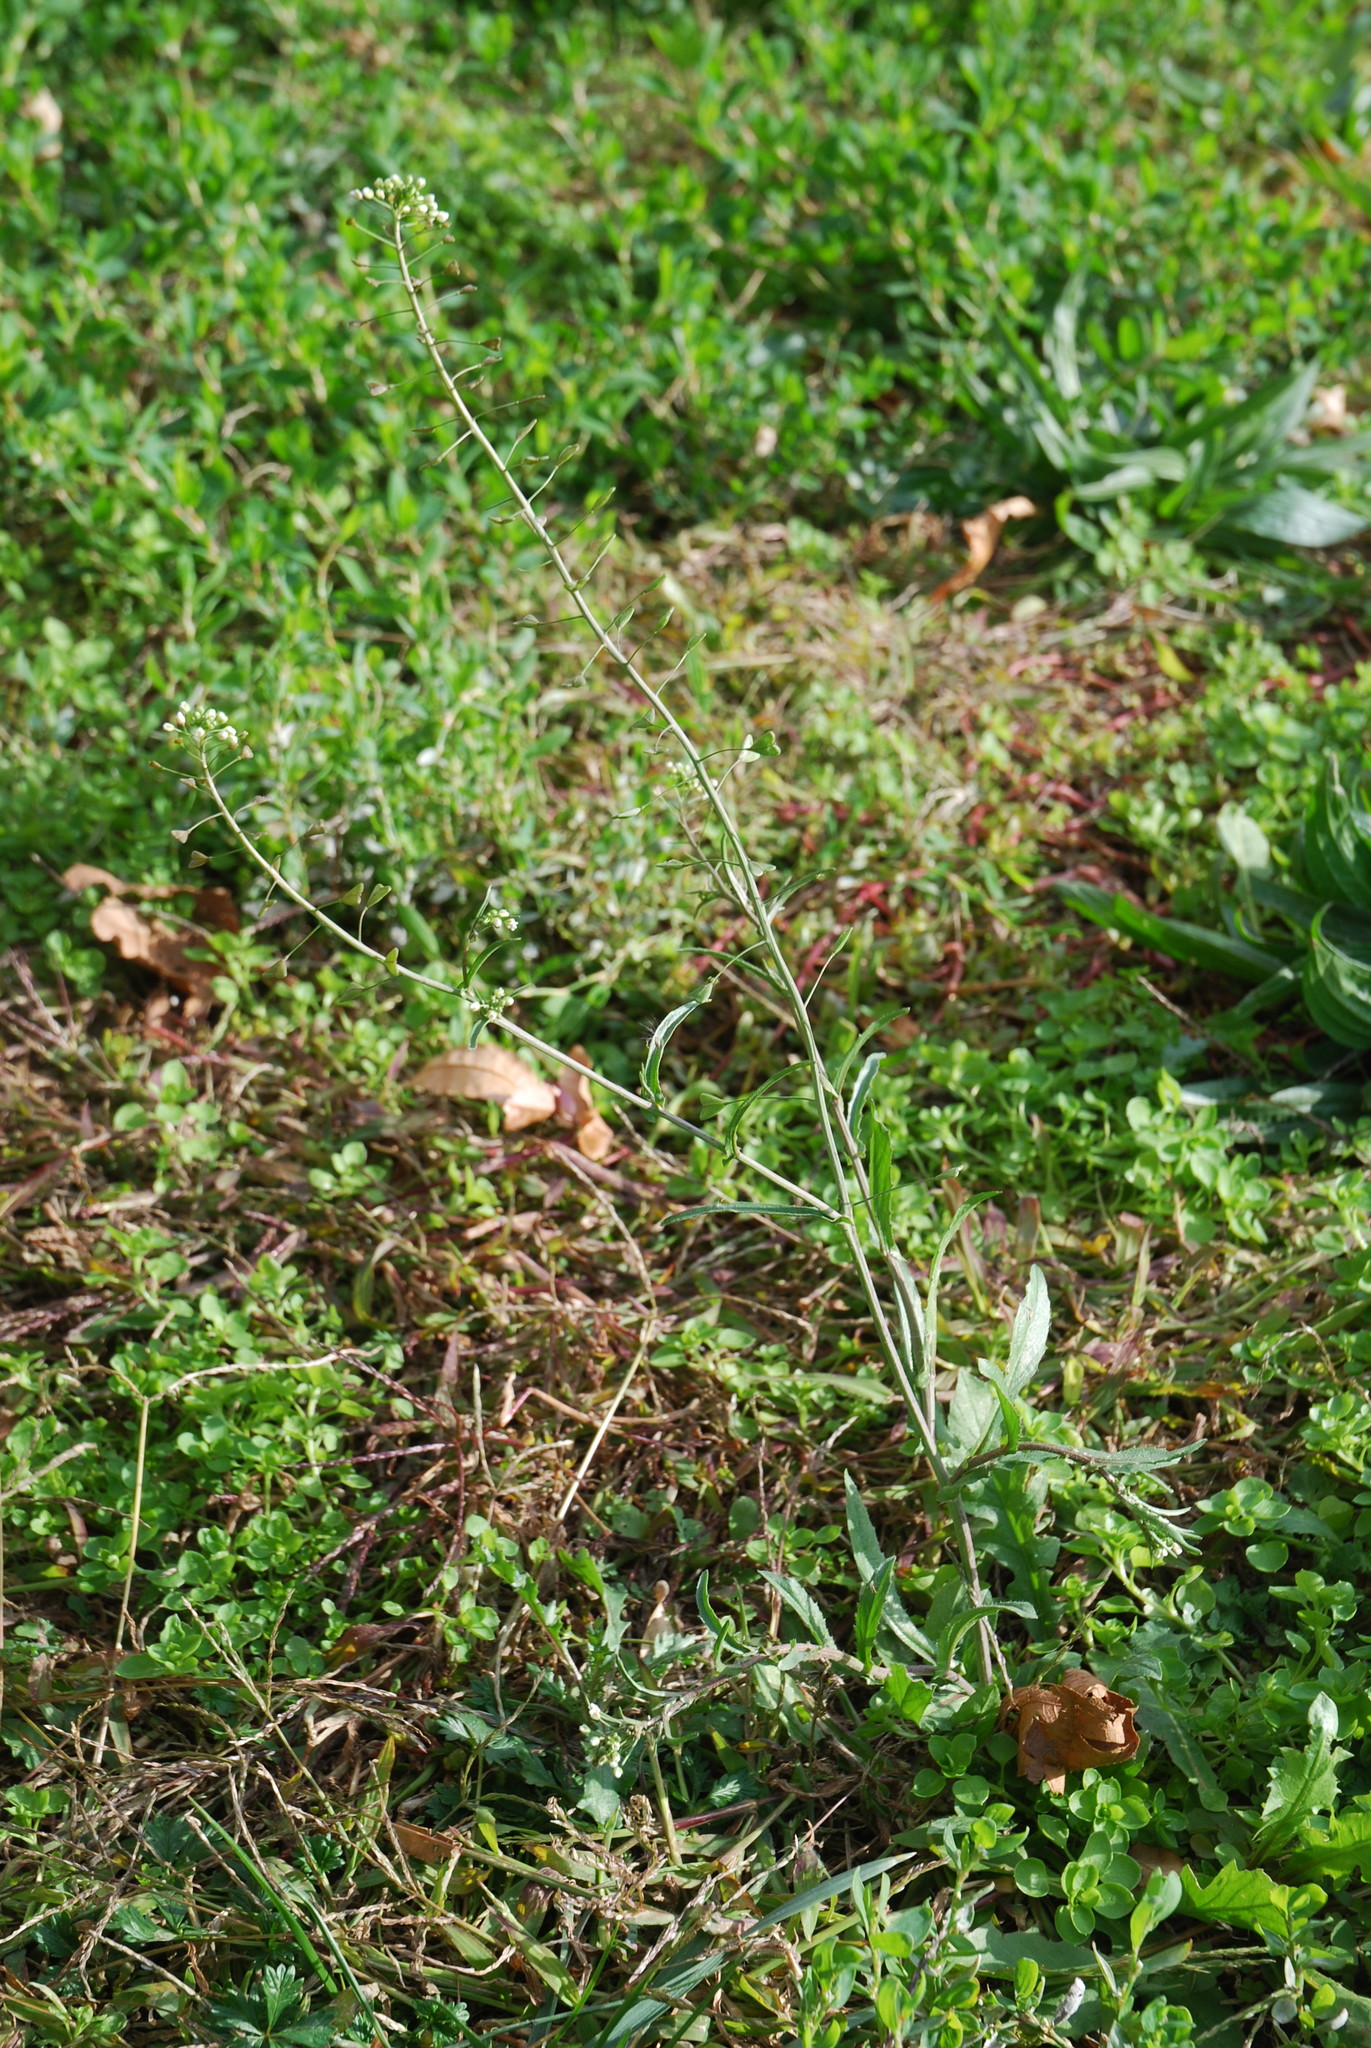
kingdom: Plantae
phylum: Tracheophyta
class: Magnoliopsida
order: Brassicales
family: Brassicaceae
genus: Capsella
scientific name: Capsella bursa-pastoris
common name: Shepherd's purse
